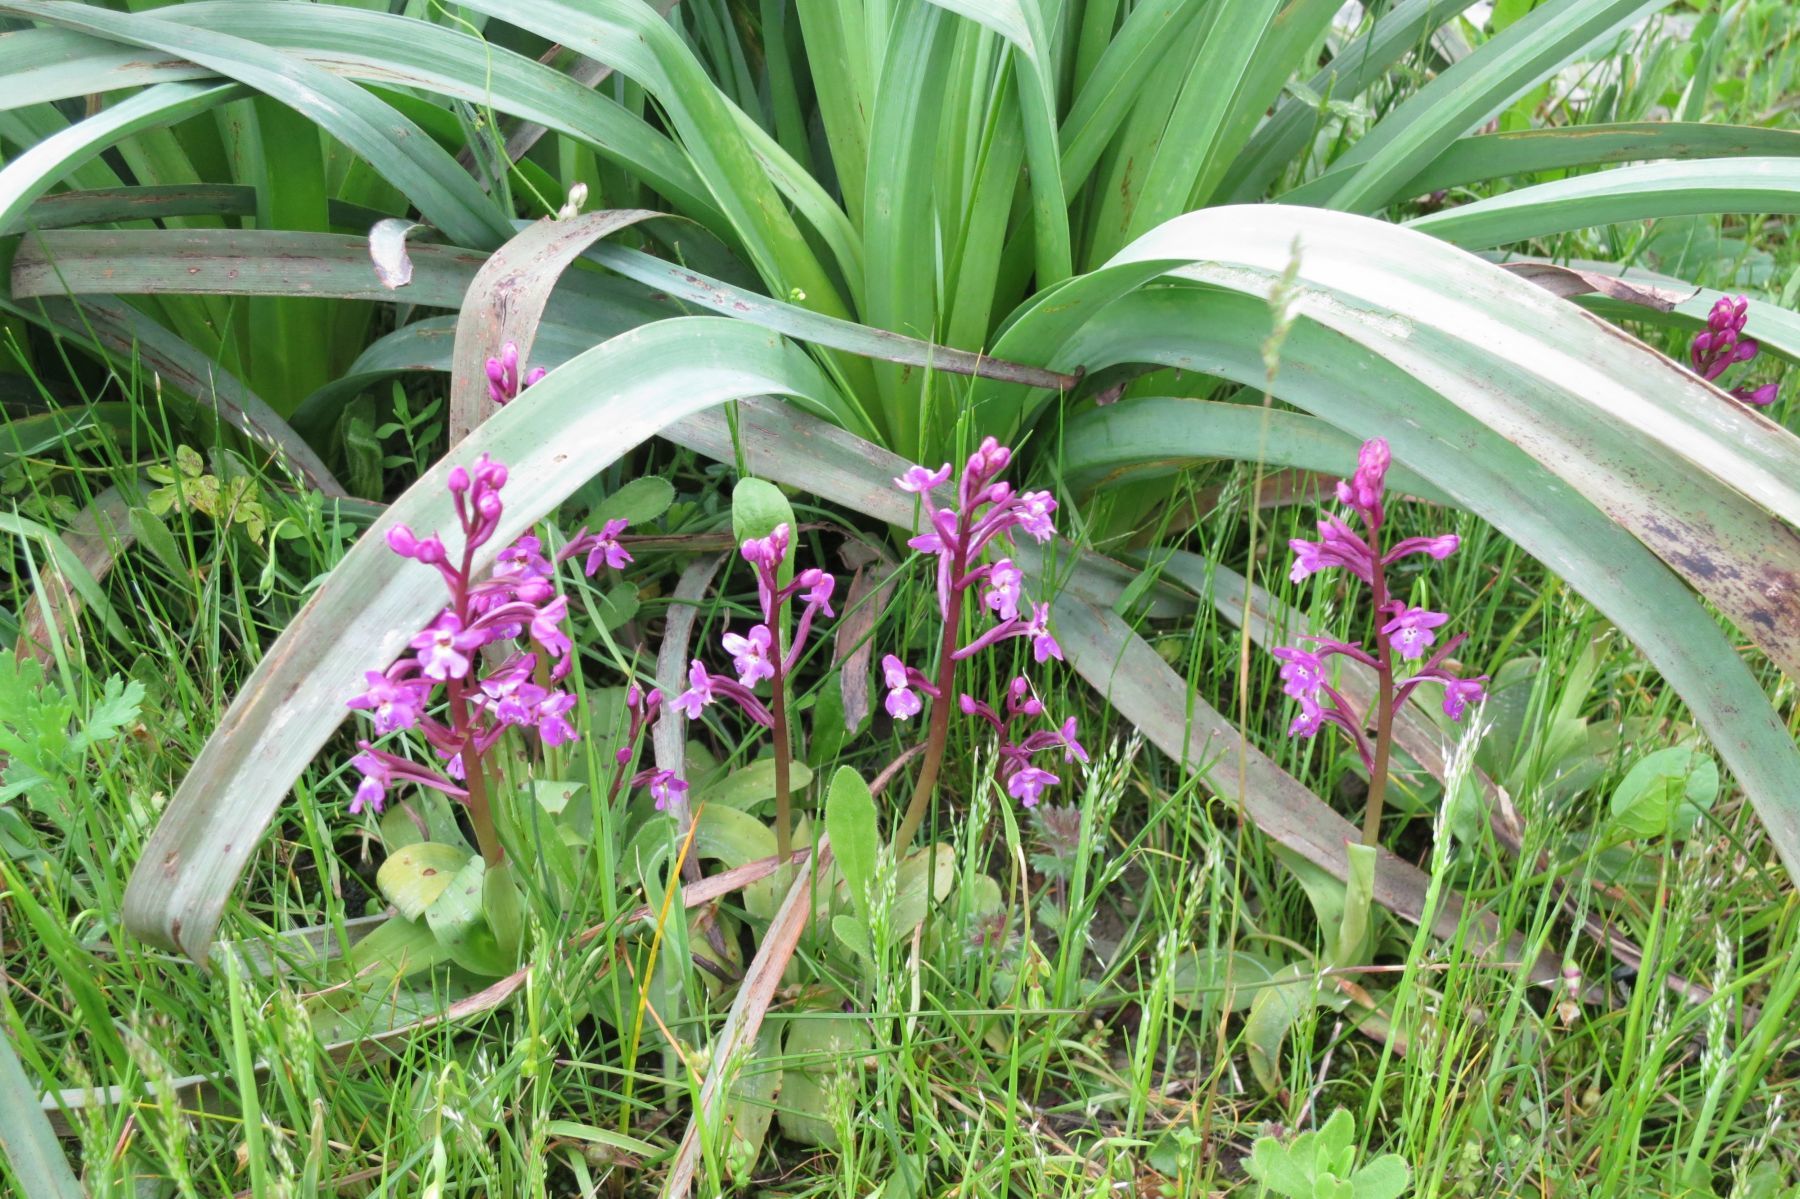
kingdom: Plantae
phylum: Tracheophyta
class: Liliopsida
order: Asparagales
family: Orchidaceae
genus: Orchis
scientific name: Orchis quadripunctata
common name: Four-spotted orchid
